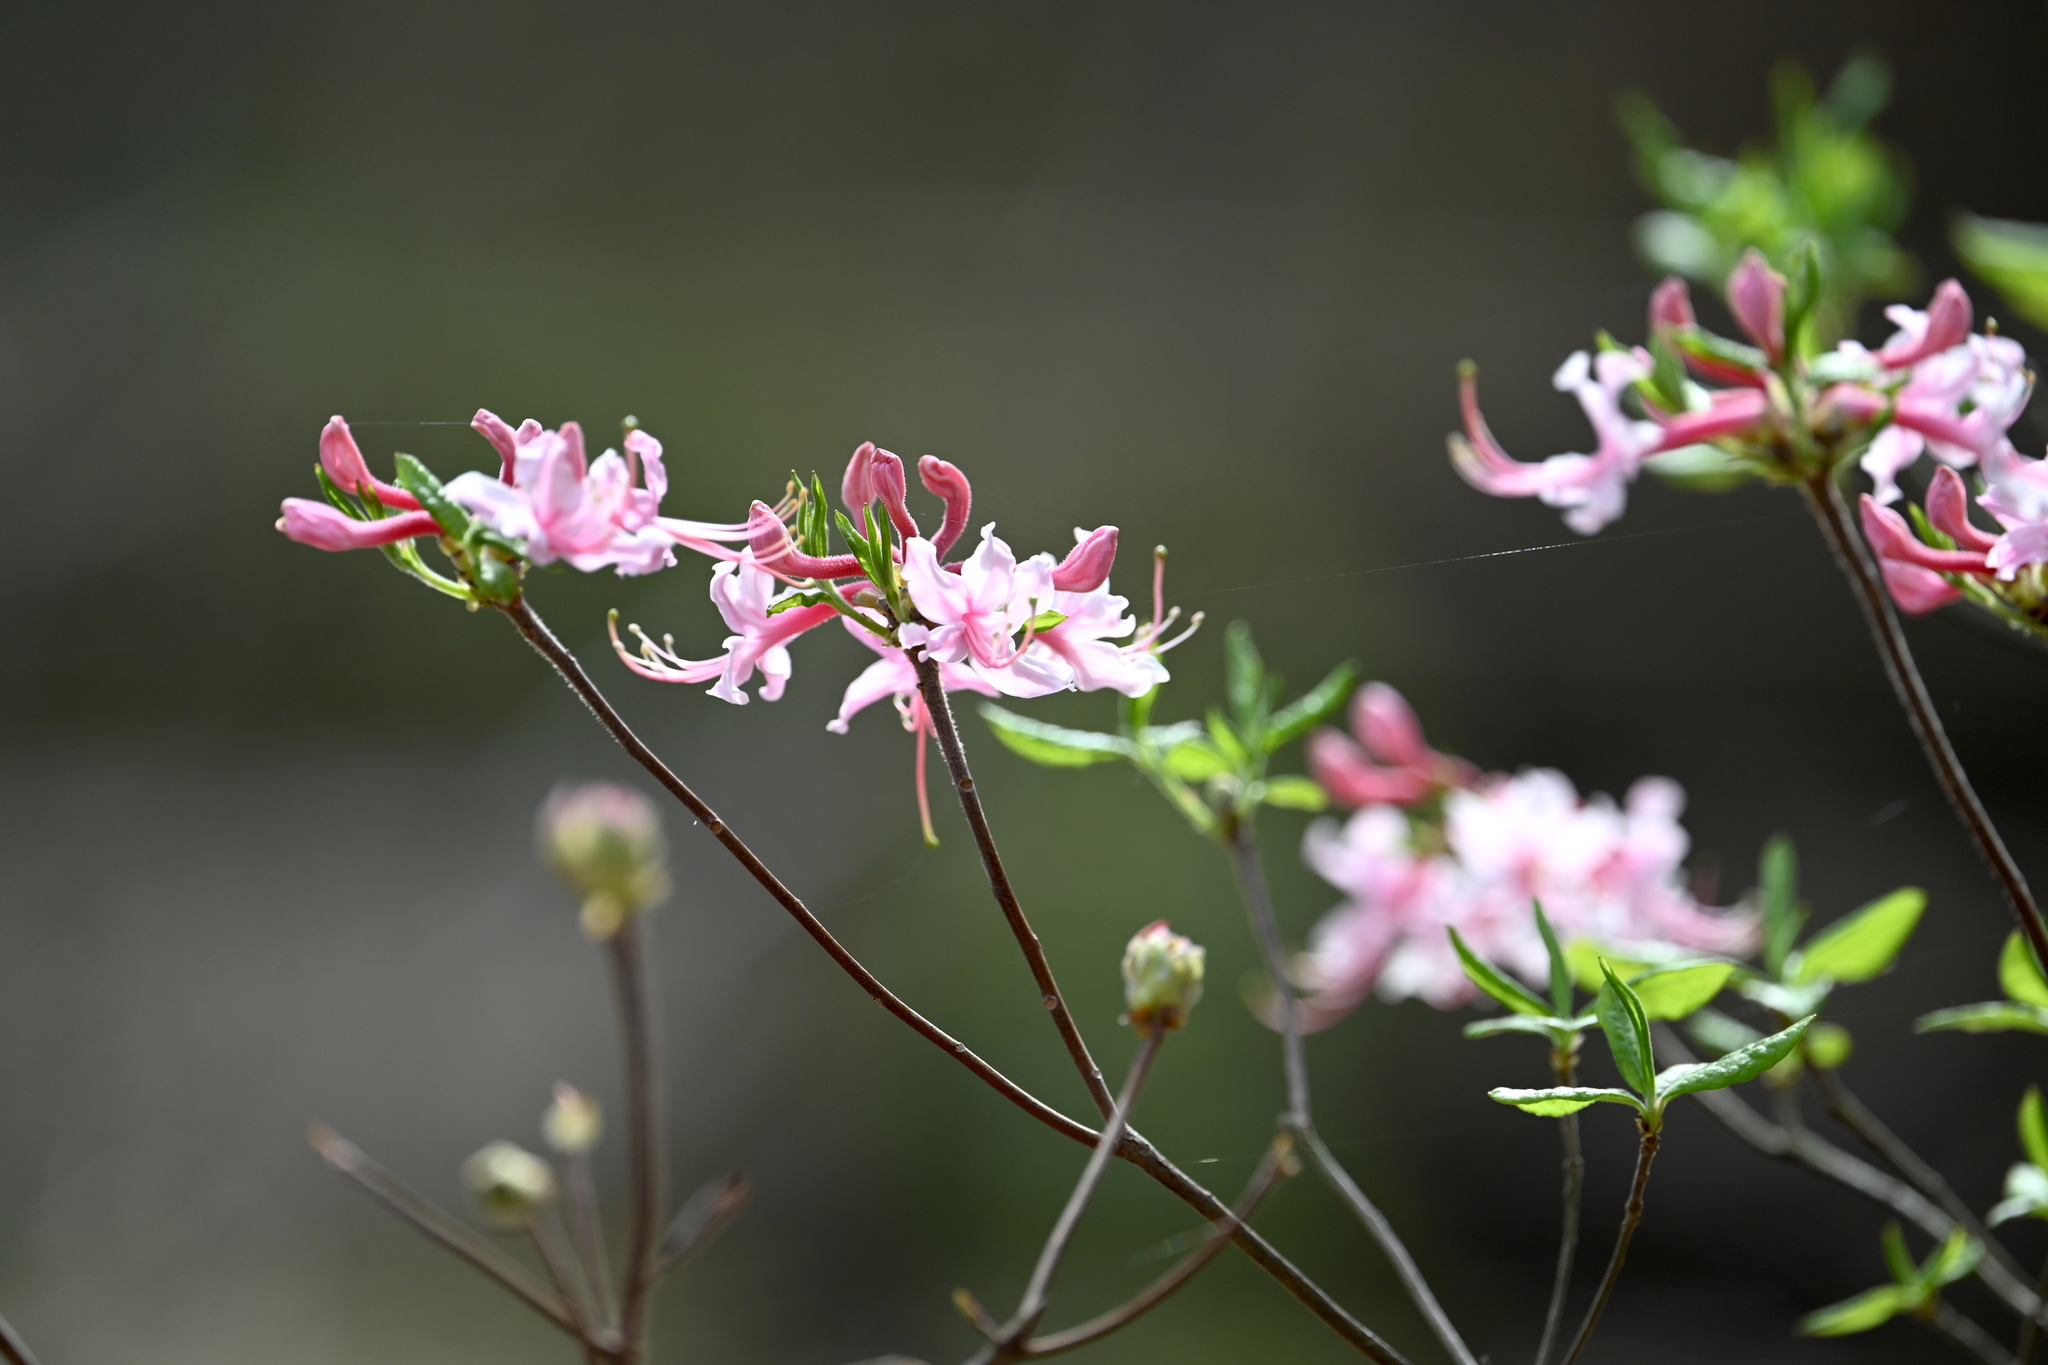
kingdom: Plantae
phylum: Tracheophyta
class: Magnoliopsida
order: Ericales
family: Ericaceae
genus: Rhododendron
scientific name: Rhododendron canescens
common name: Mountain azalea
